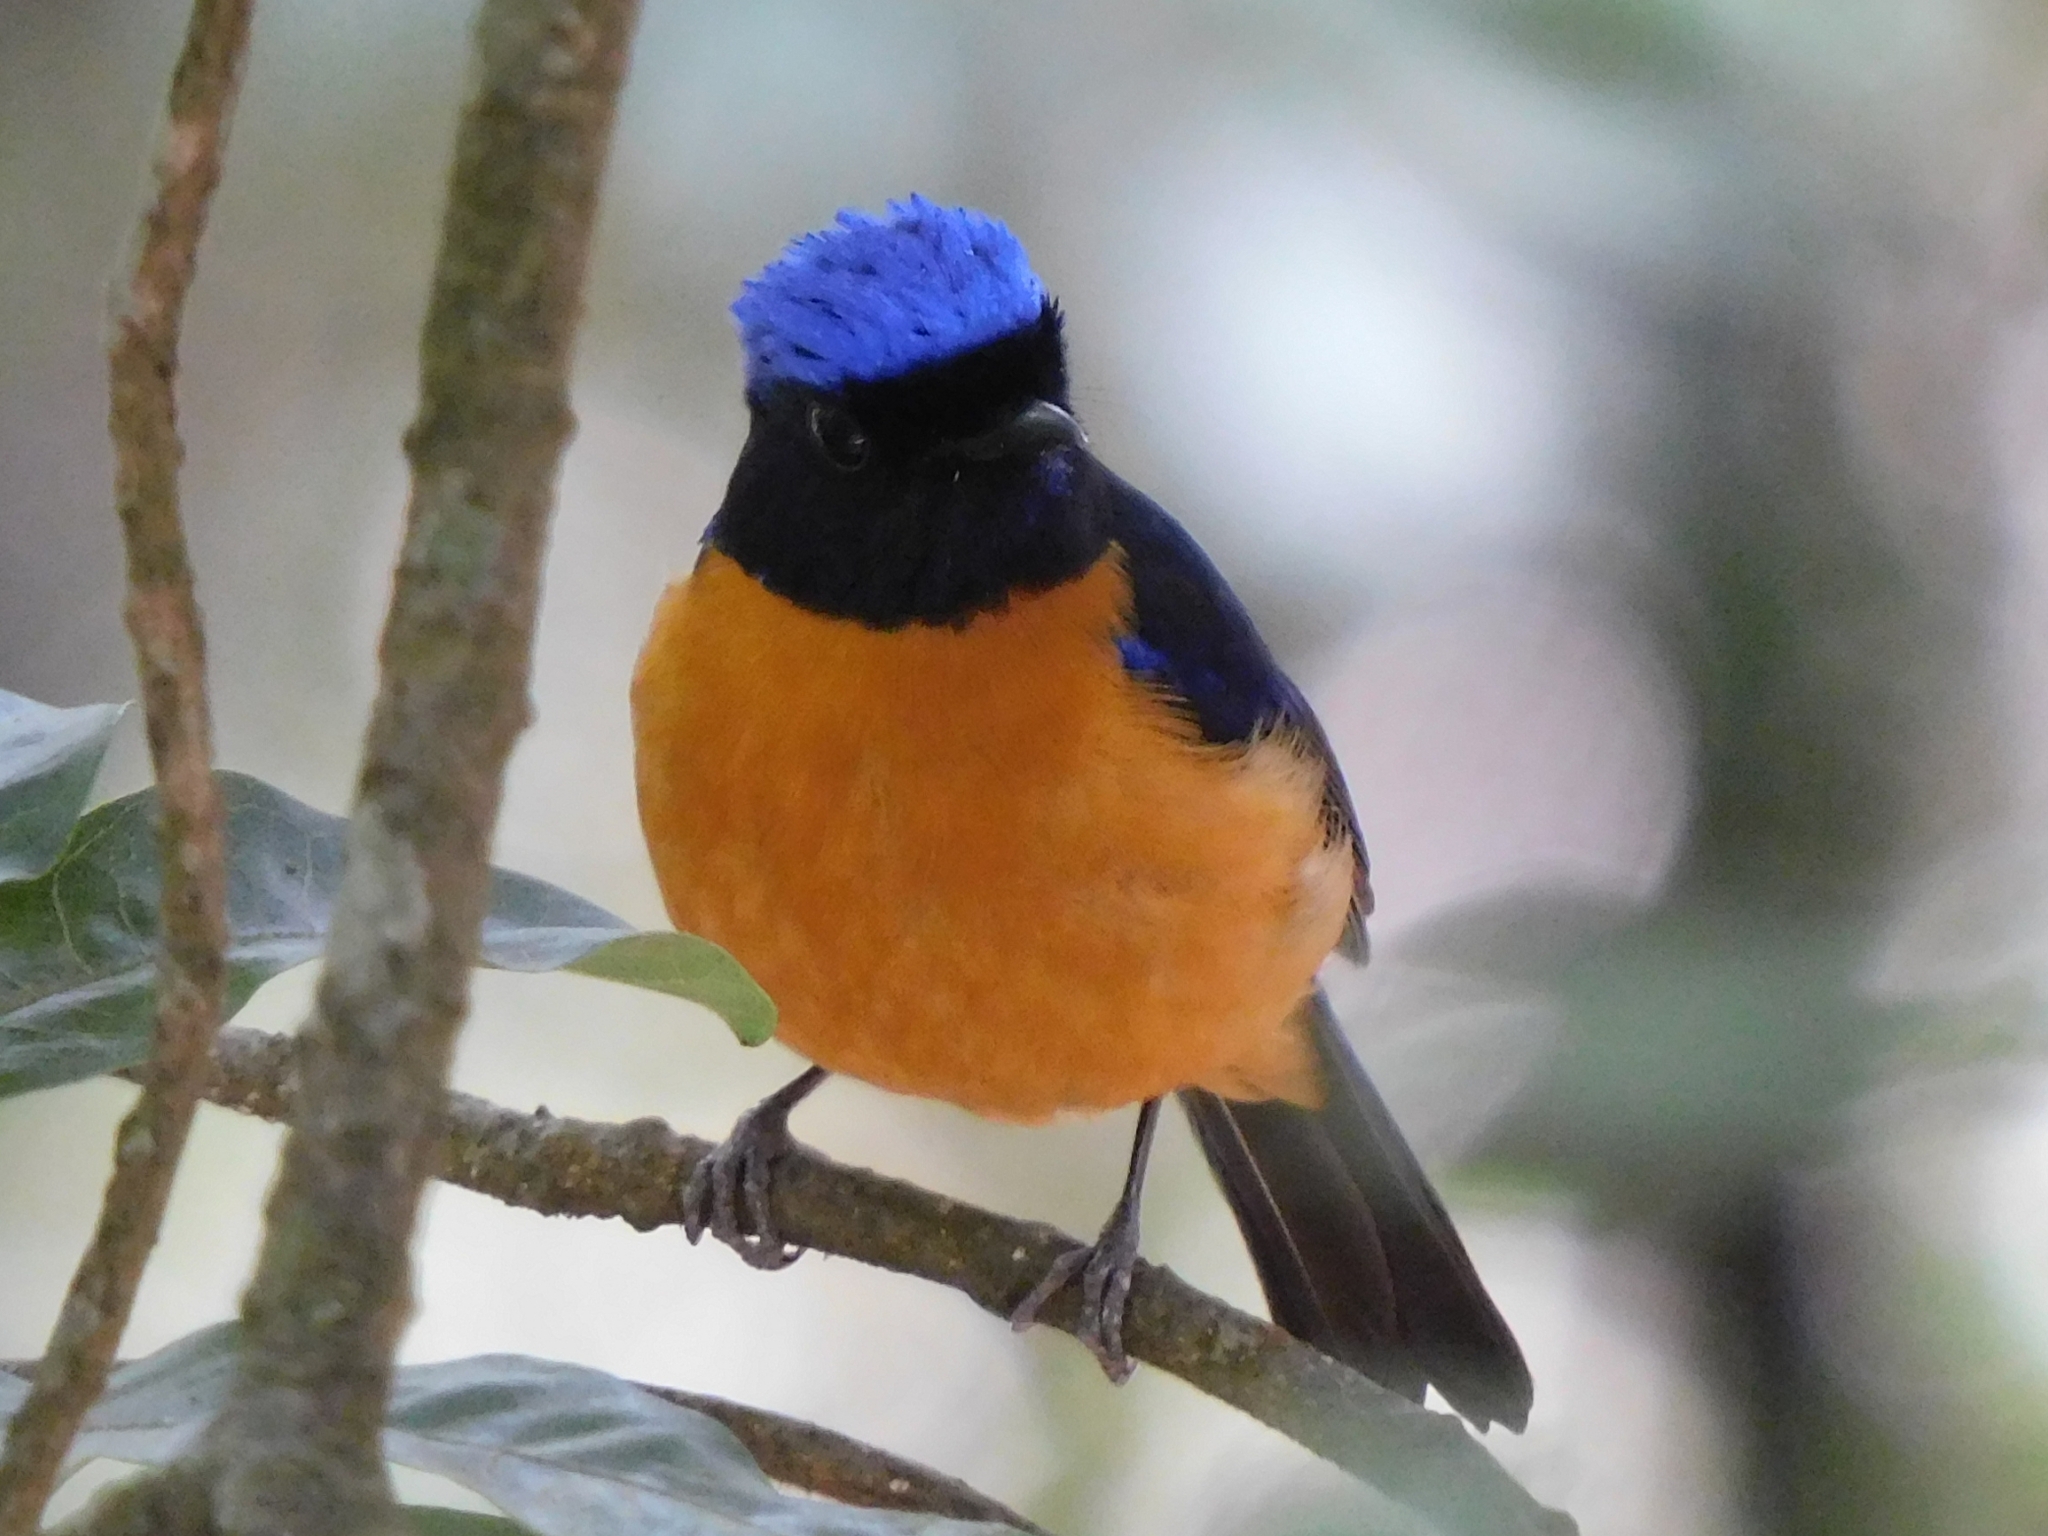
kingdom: Animalia
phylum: Chordata
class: Aves
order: Passeriformes
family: Muscicapidae
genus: Niltava
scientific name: Niltava sundara
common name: Rufous-bellied niltava
